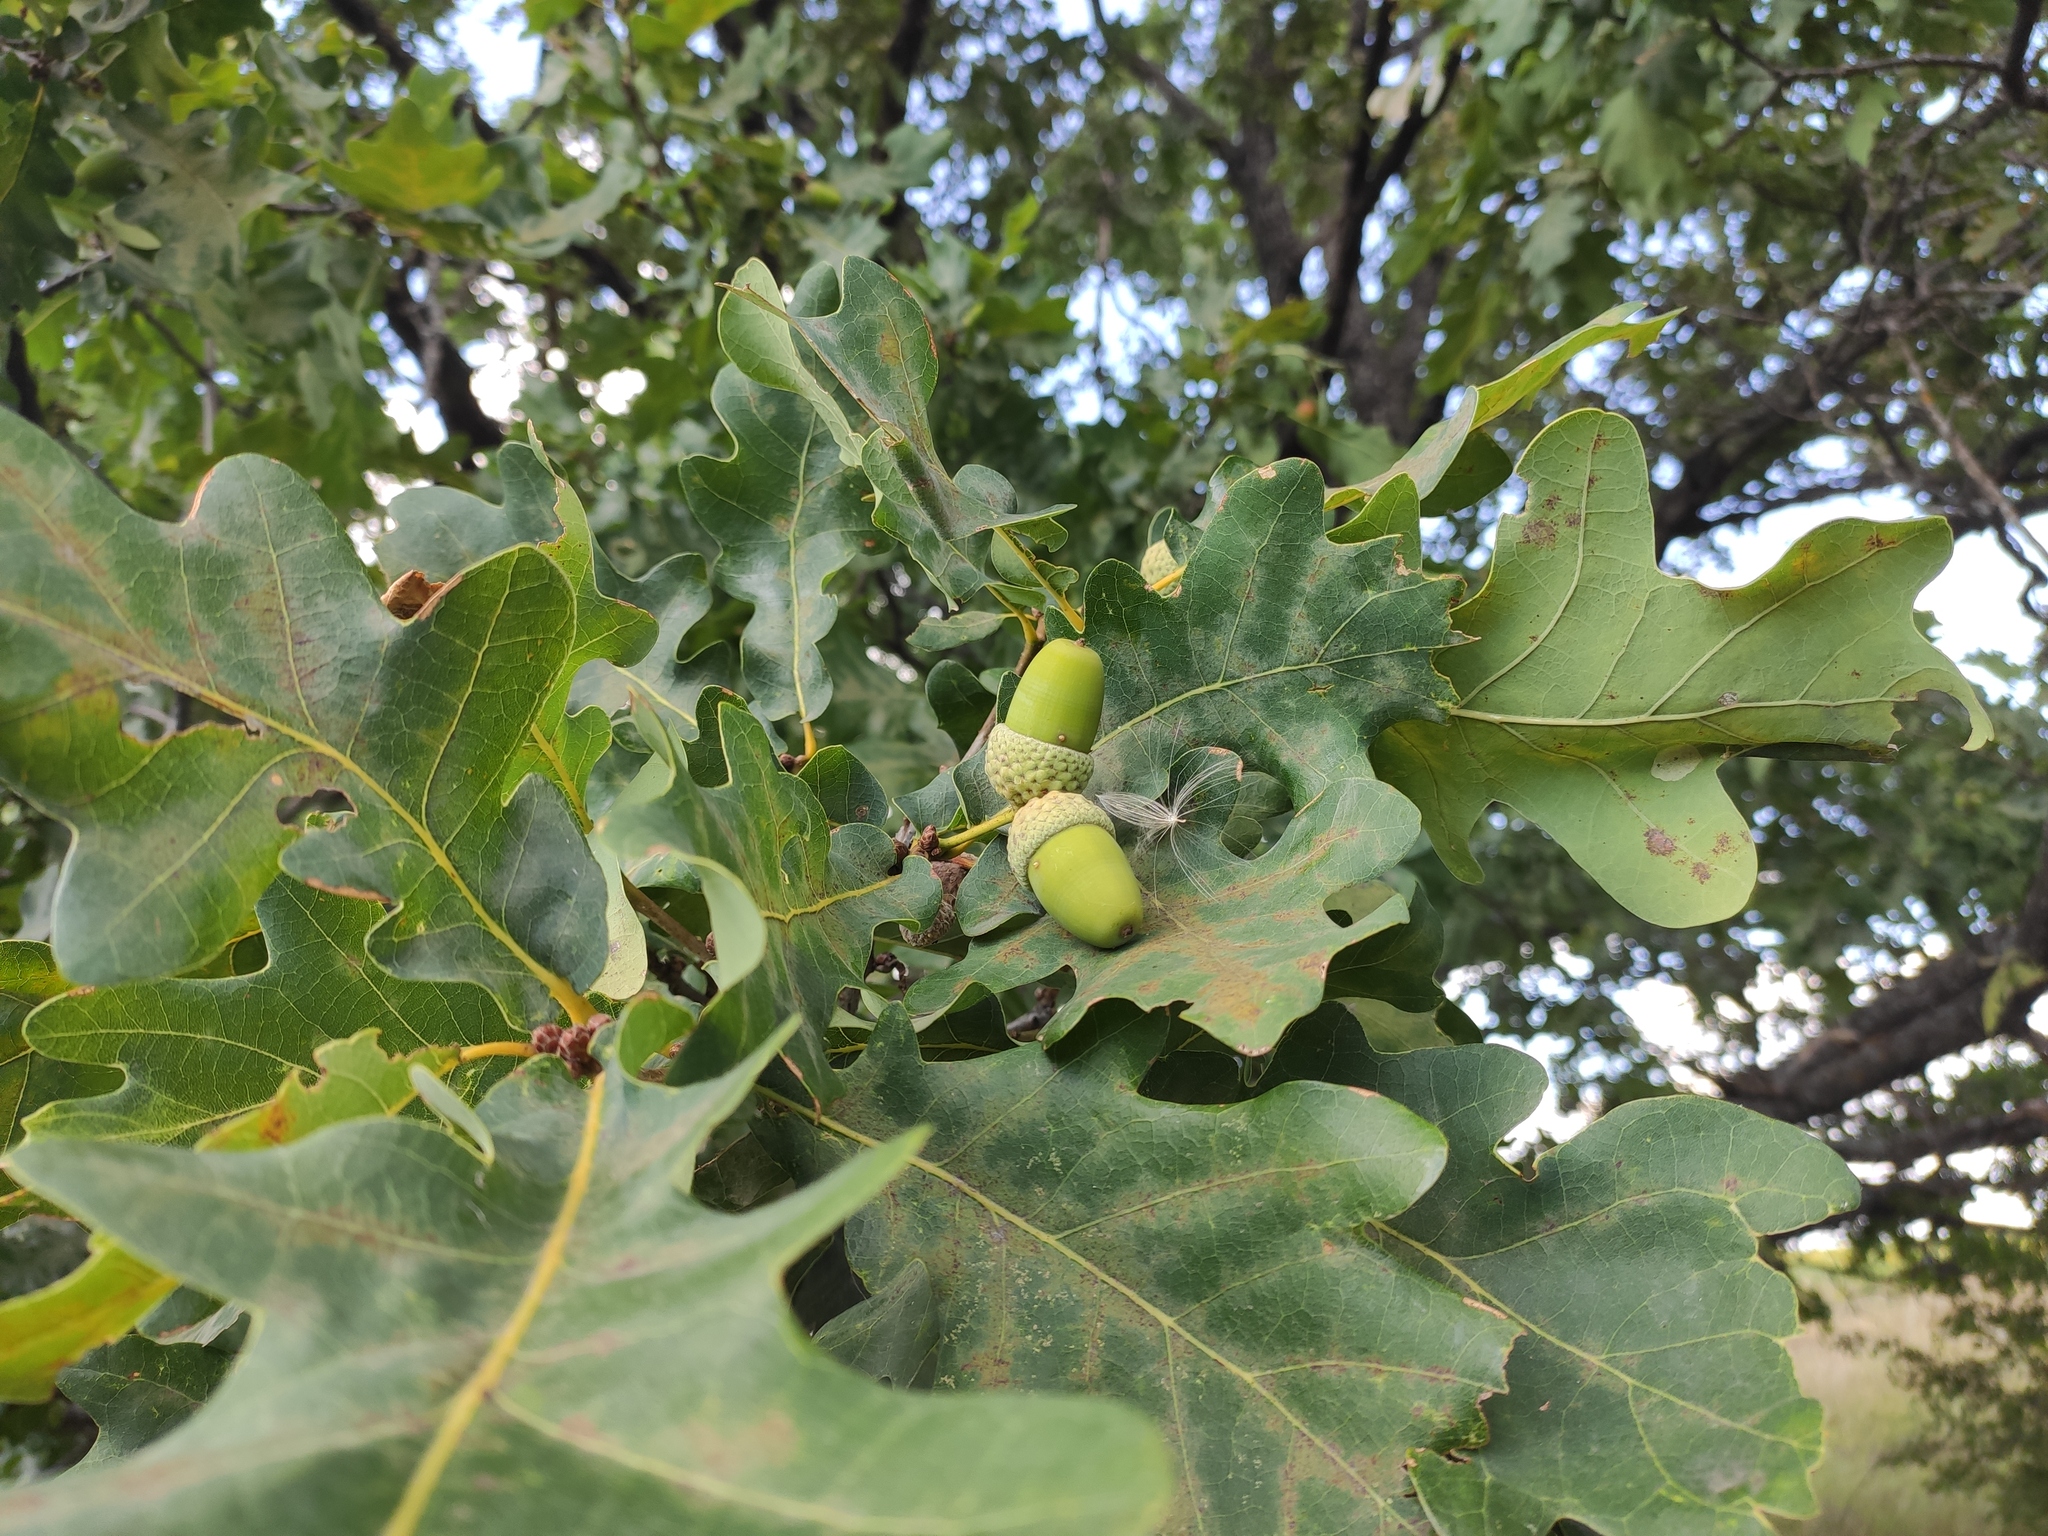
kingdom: Plantae
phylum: Tracheophyta
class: Magnoliopsida
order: Fagales
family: Fagaceae
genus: Quercus
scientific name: Quercus robur
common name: Pedunculate oak
